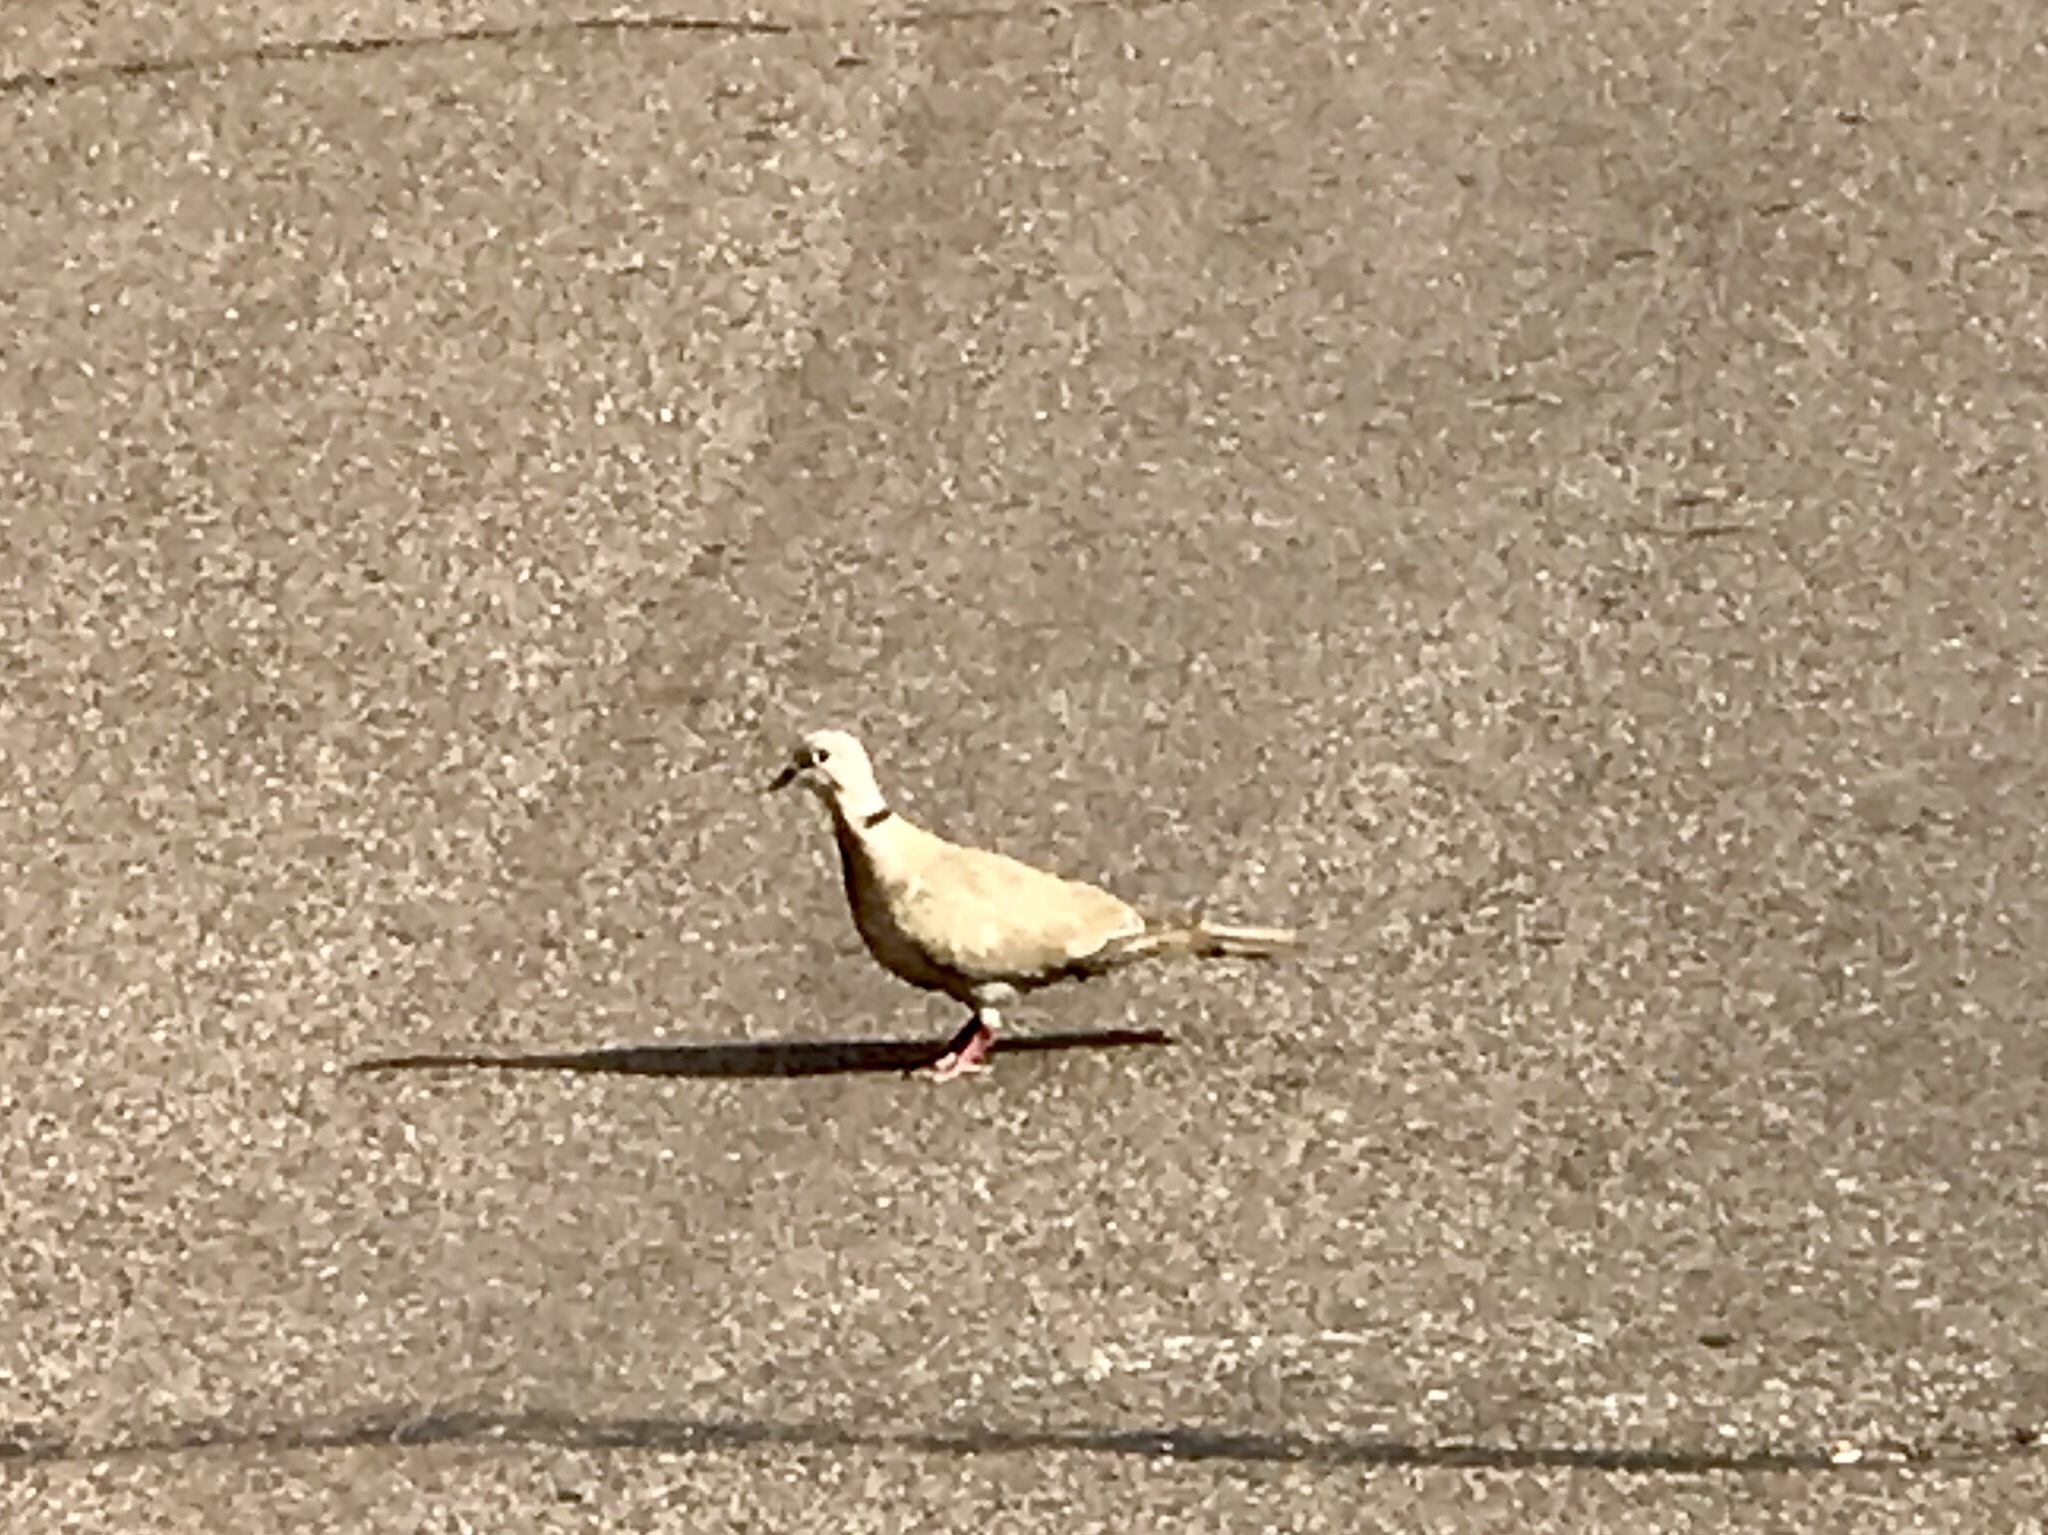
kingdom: Animalia
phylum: Chordata
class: Aves
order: Columbiformes
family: Columbidae
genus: Streptopelia
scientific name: Streptopelia decaocto
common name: Eurasian collared dove
